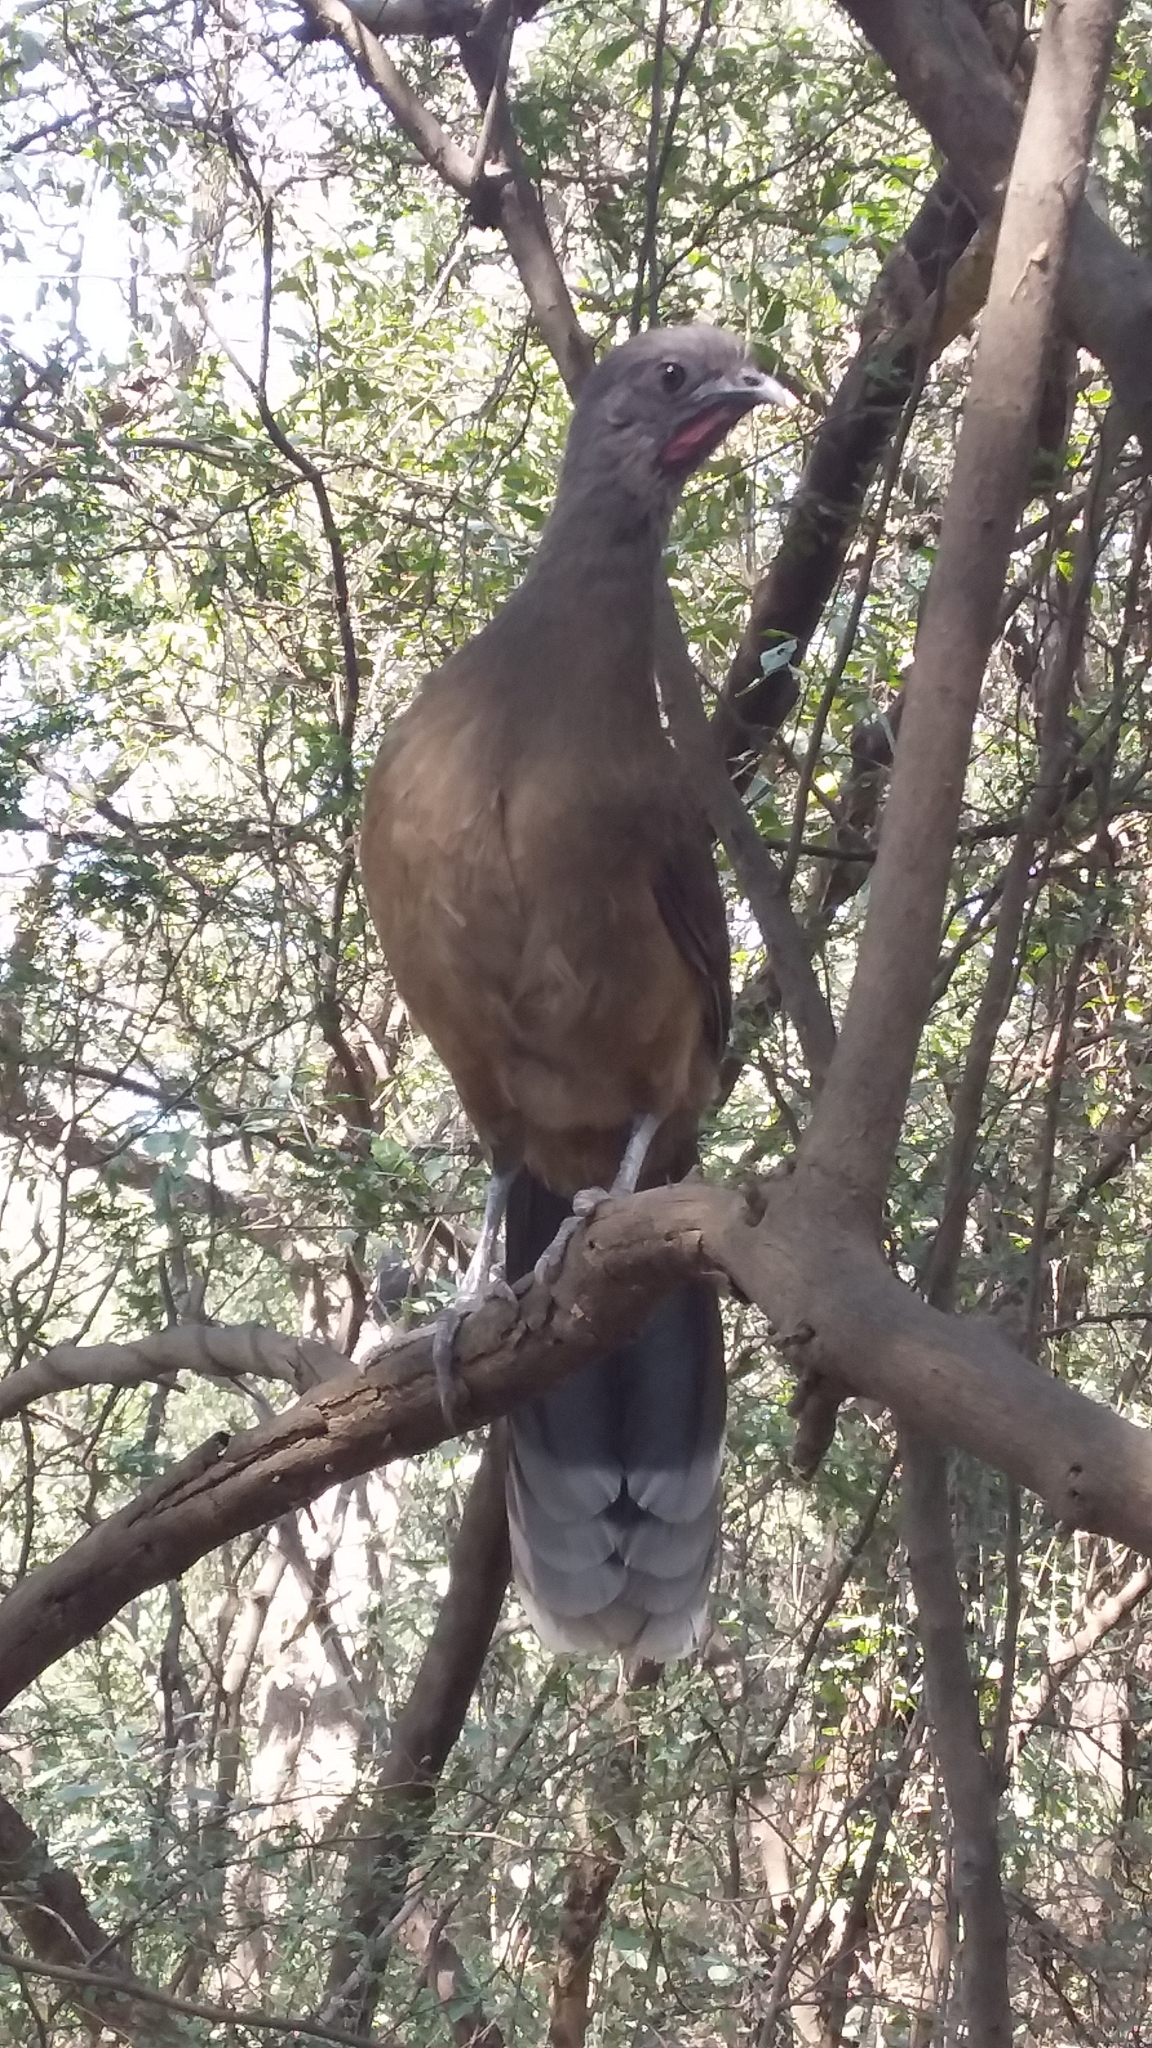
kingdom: Animalia
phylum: Chordata
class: Aves
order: Galliformes
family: Cracidae
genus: Ortalis
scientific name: Ortalis vetula
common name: Plain chachalaca
